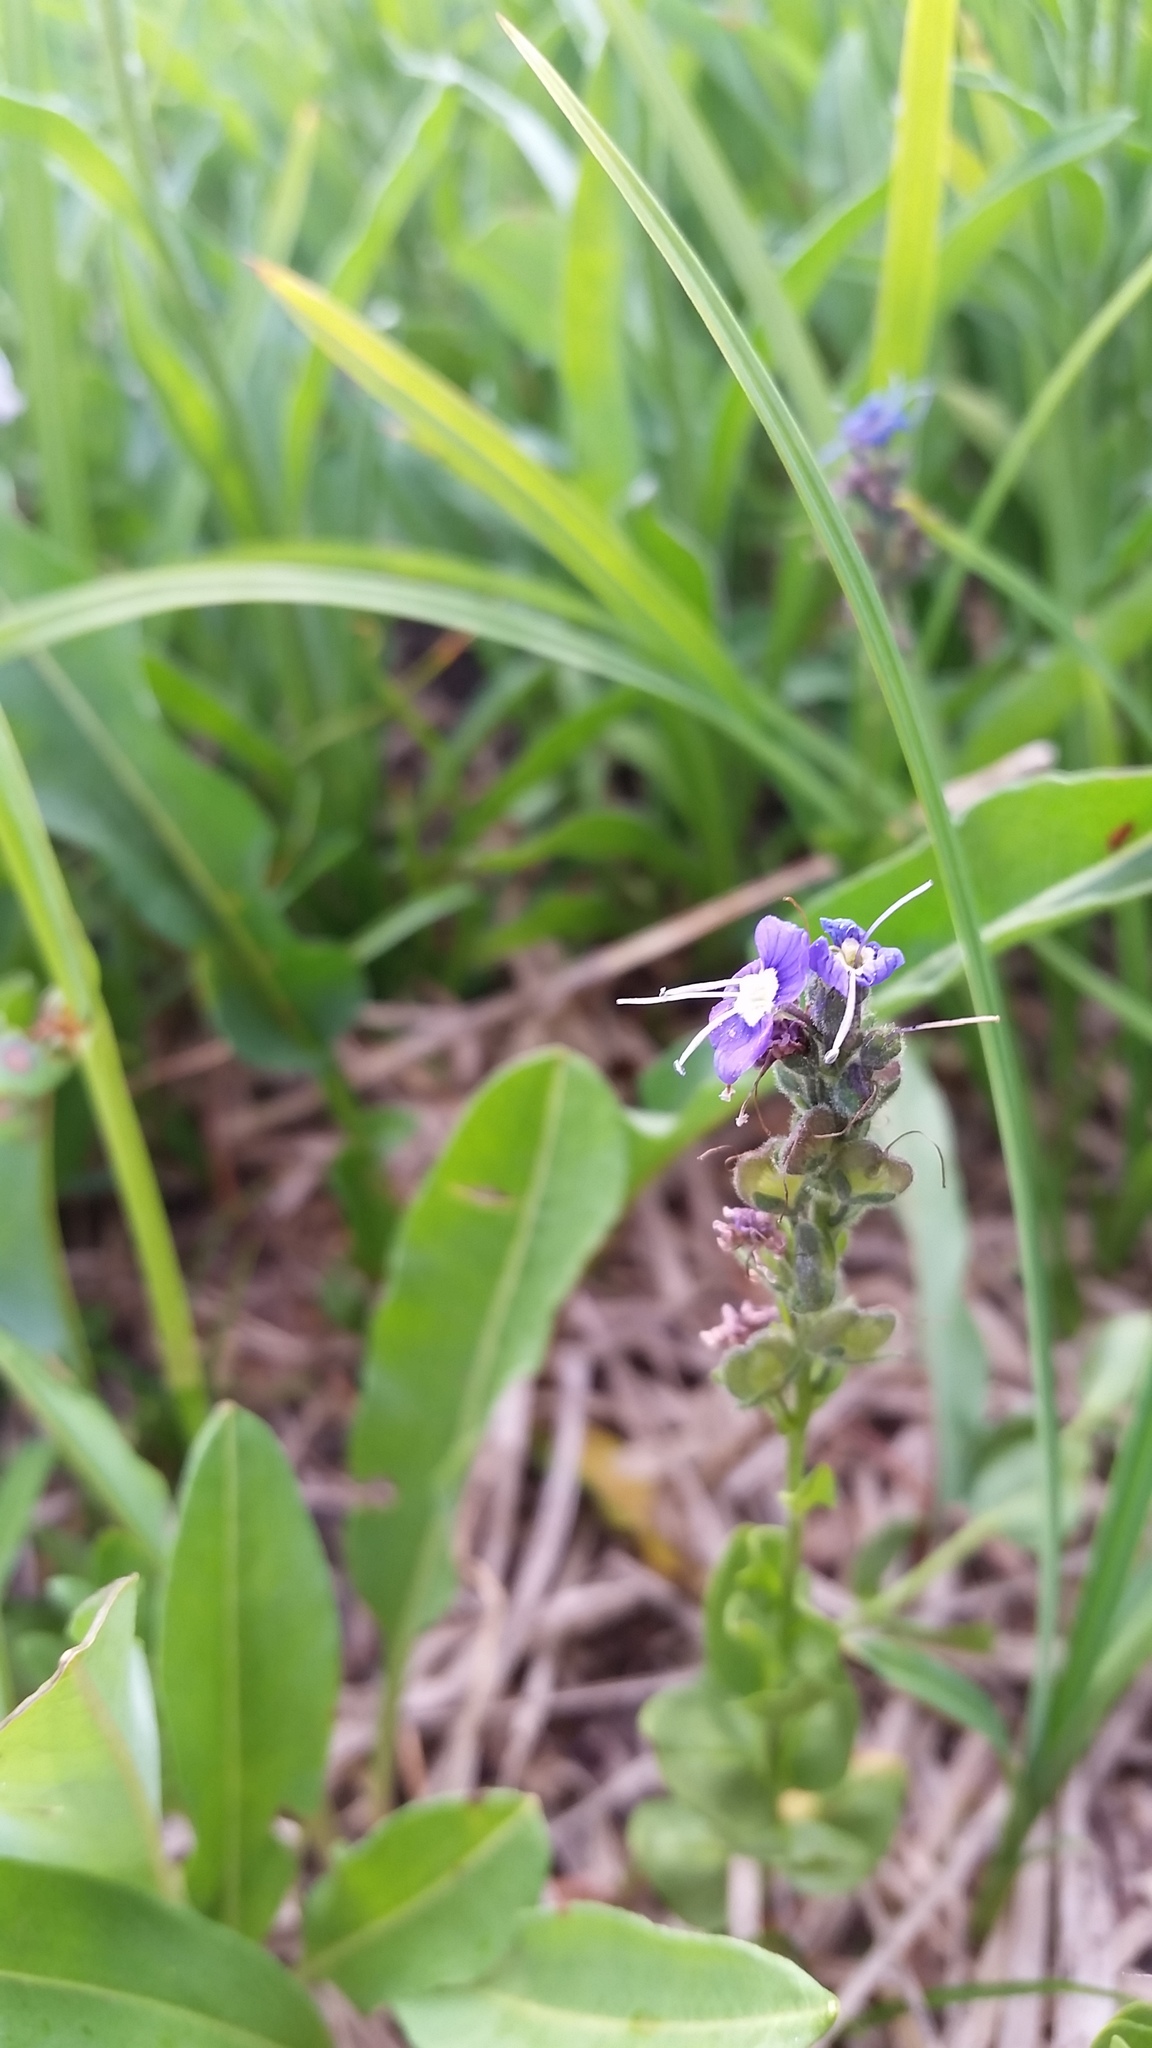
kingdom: Plantae
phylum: Tracheophyta
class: Magnoliopsida
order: Lamiales
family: Plantaginaceae
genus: Veronica
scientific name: Veronica cusickii
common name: Cusick's speedwell
